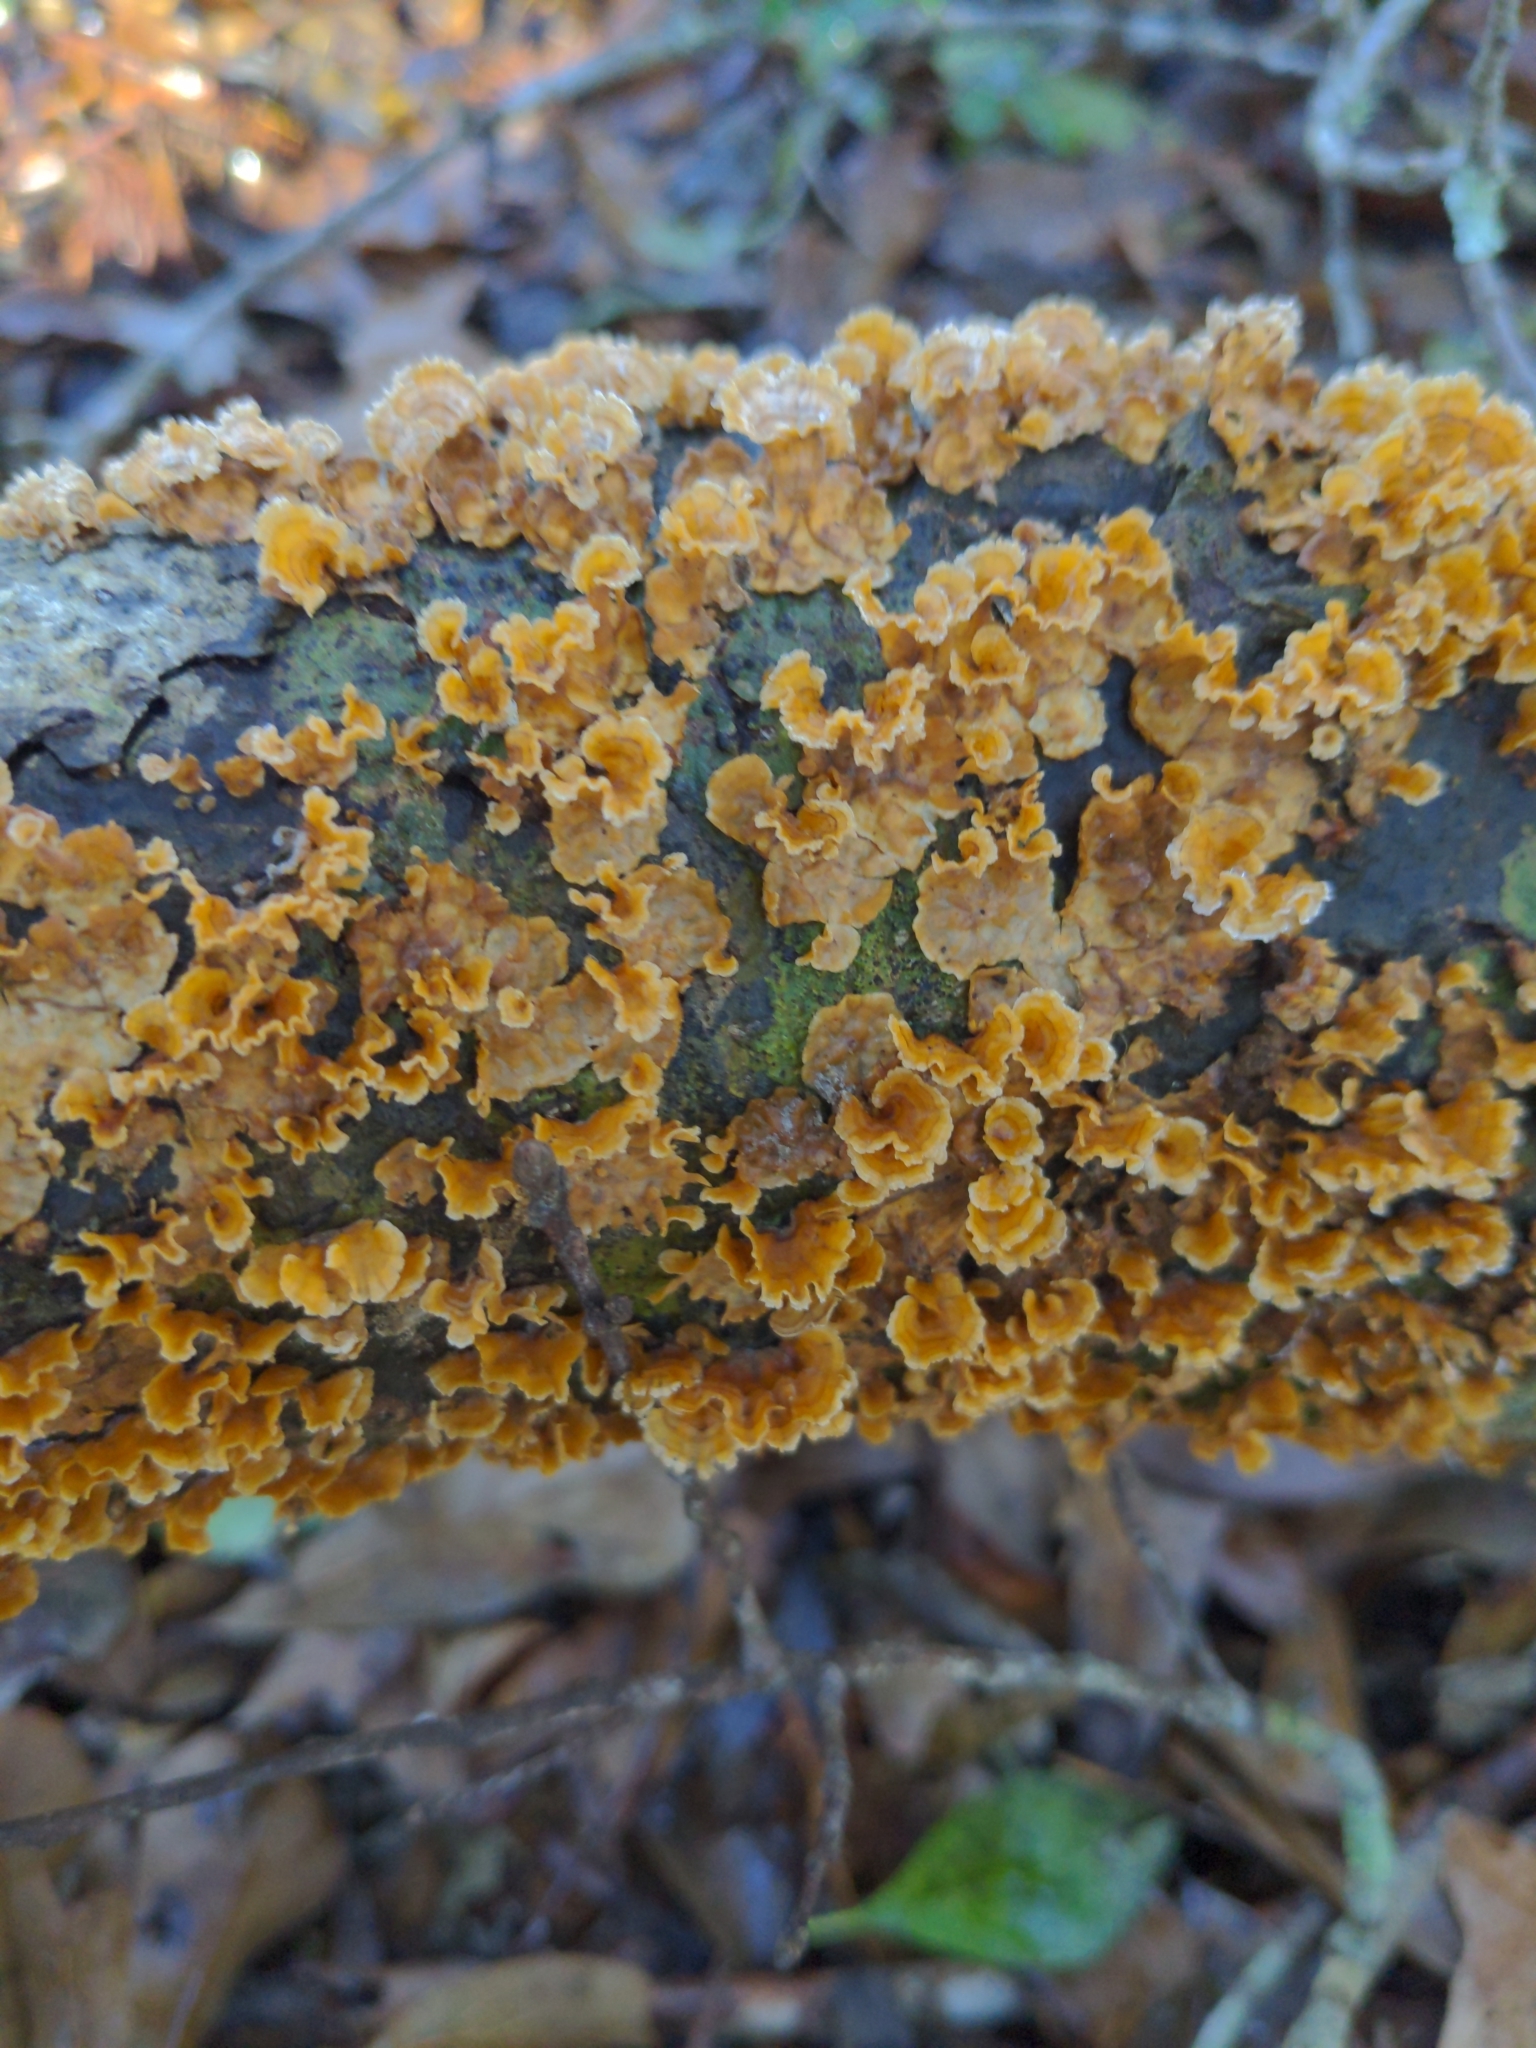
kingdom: Fungi
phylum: Basidiomycota
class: Agaricomycetes
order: Russulales
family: Stereaceae
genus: Stereum
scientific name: Stereum complicatum
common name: Crowded parchment
